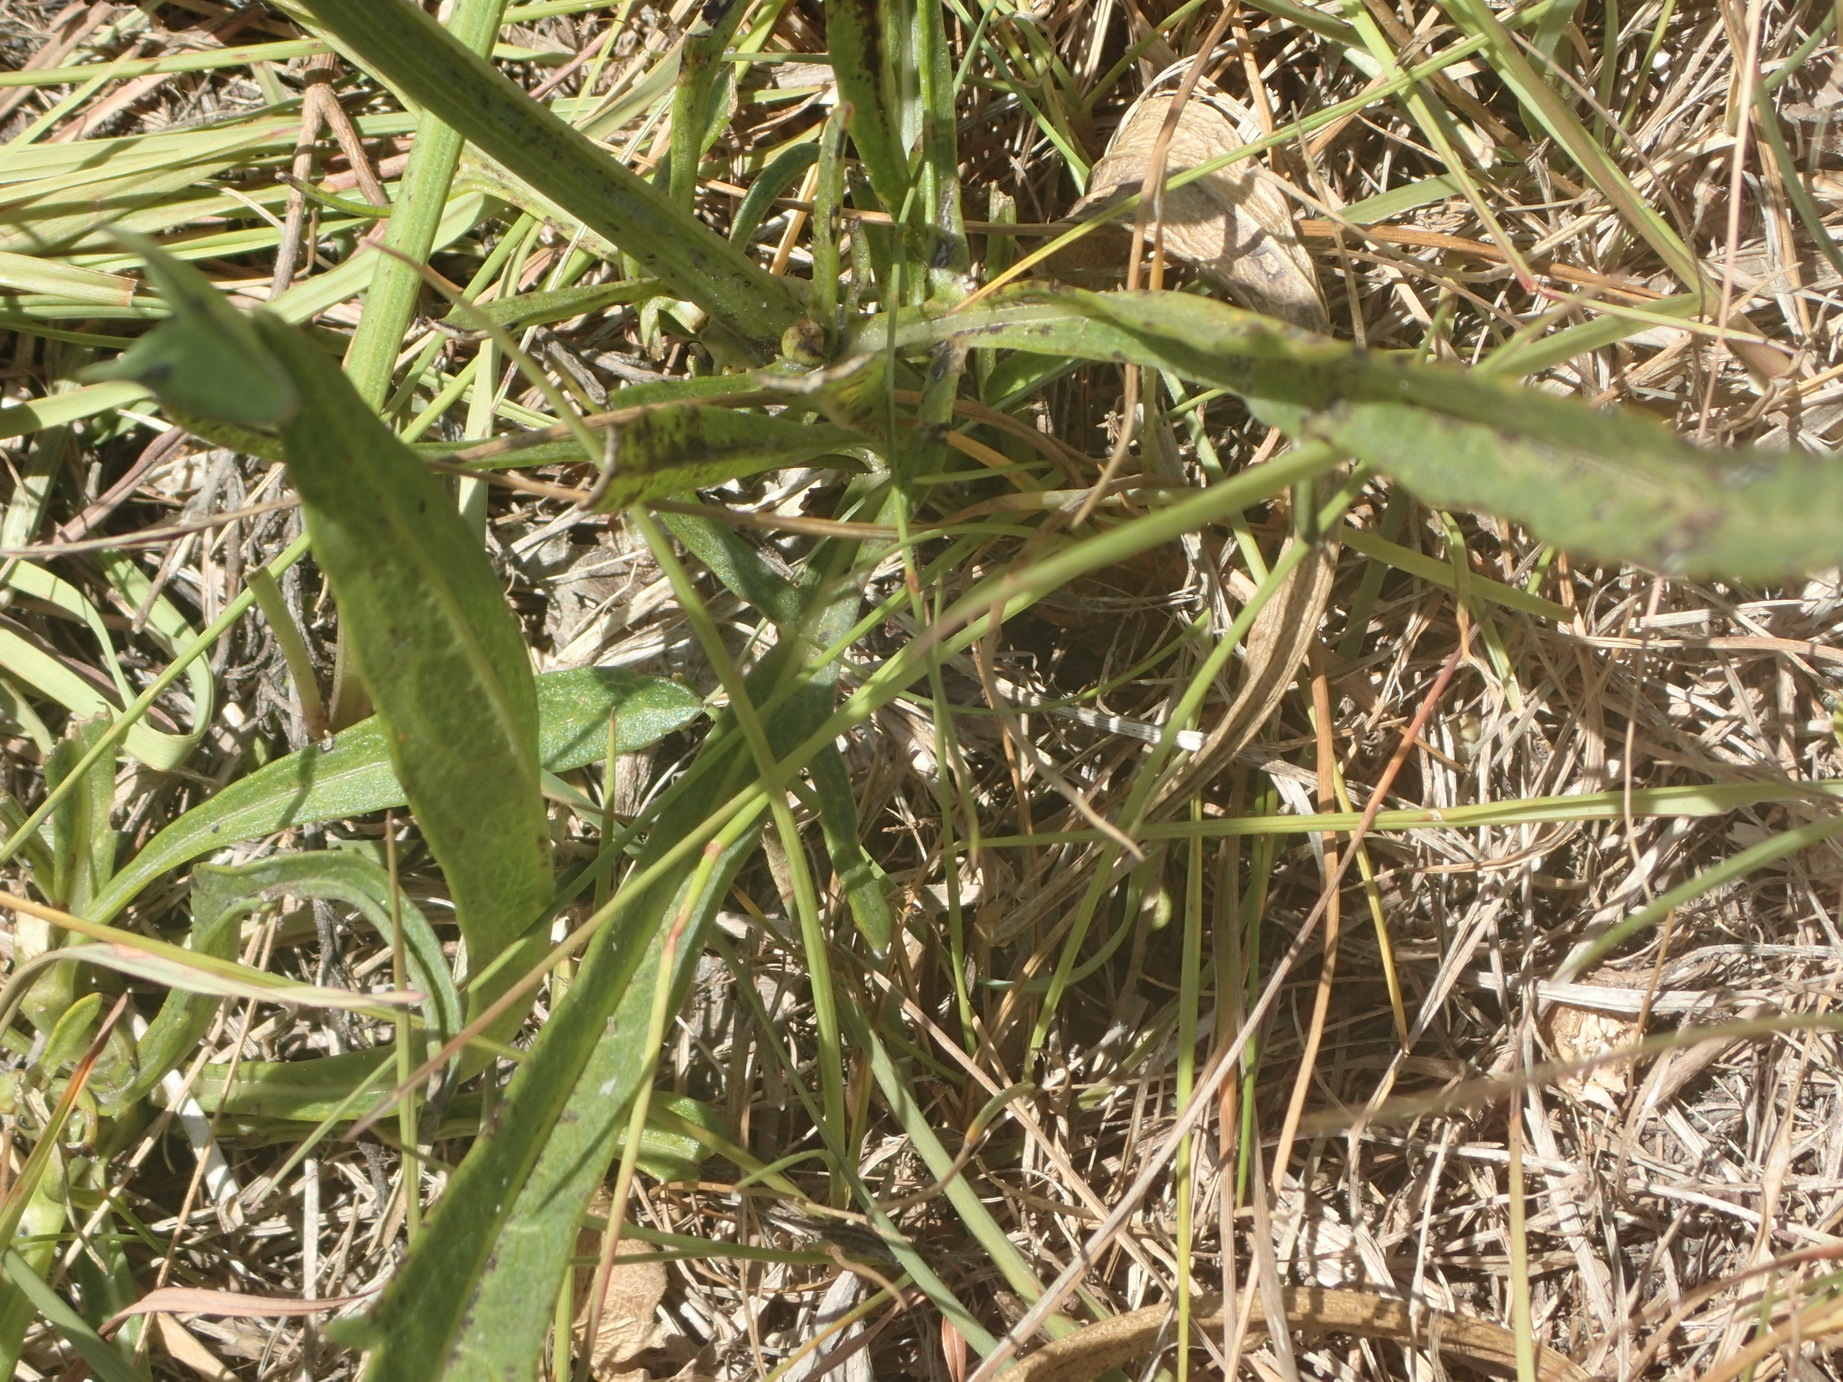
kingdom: Plantae
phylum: Tracheophyta
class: Magnoliopsida
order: Dipsacales
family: Caprifoliaceae
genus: Cephalaria
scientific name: Cephalaria humilis
